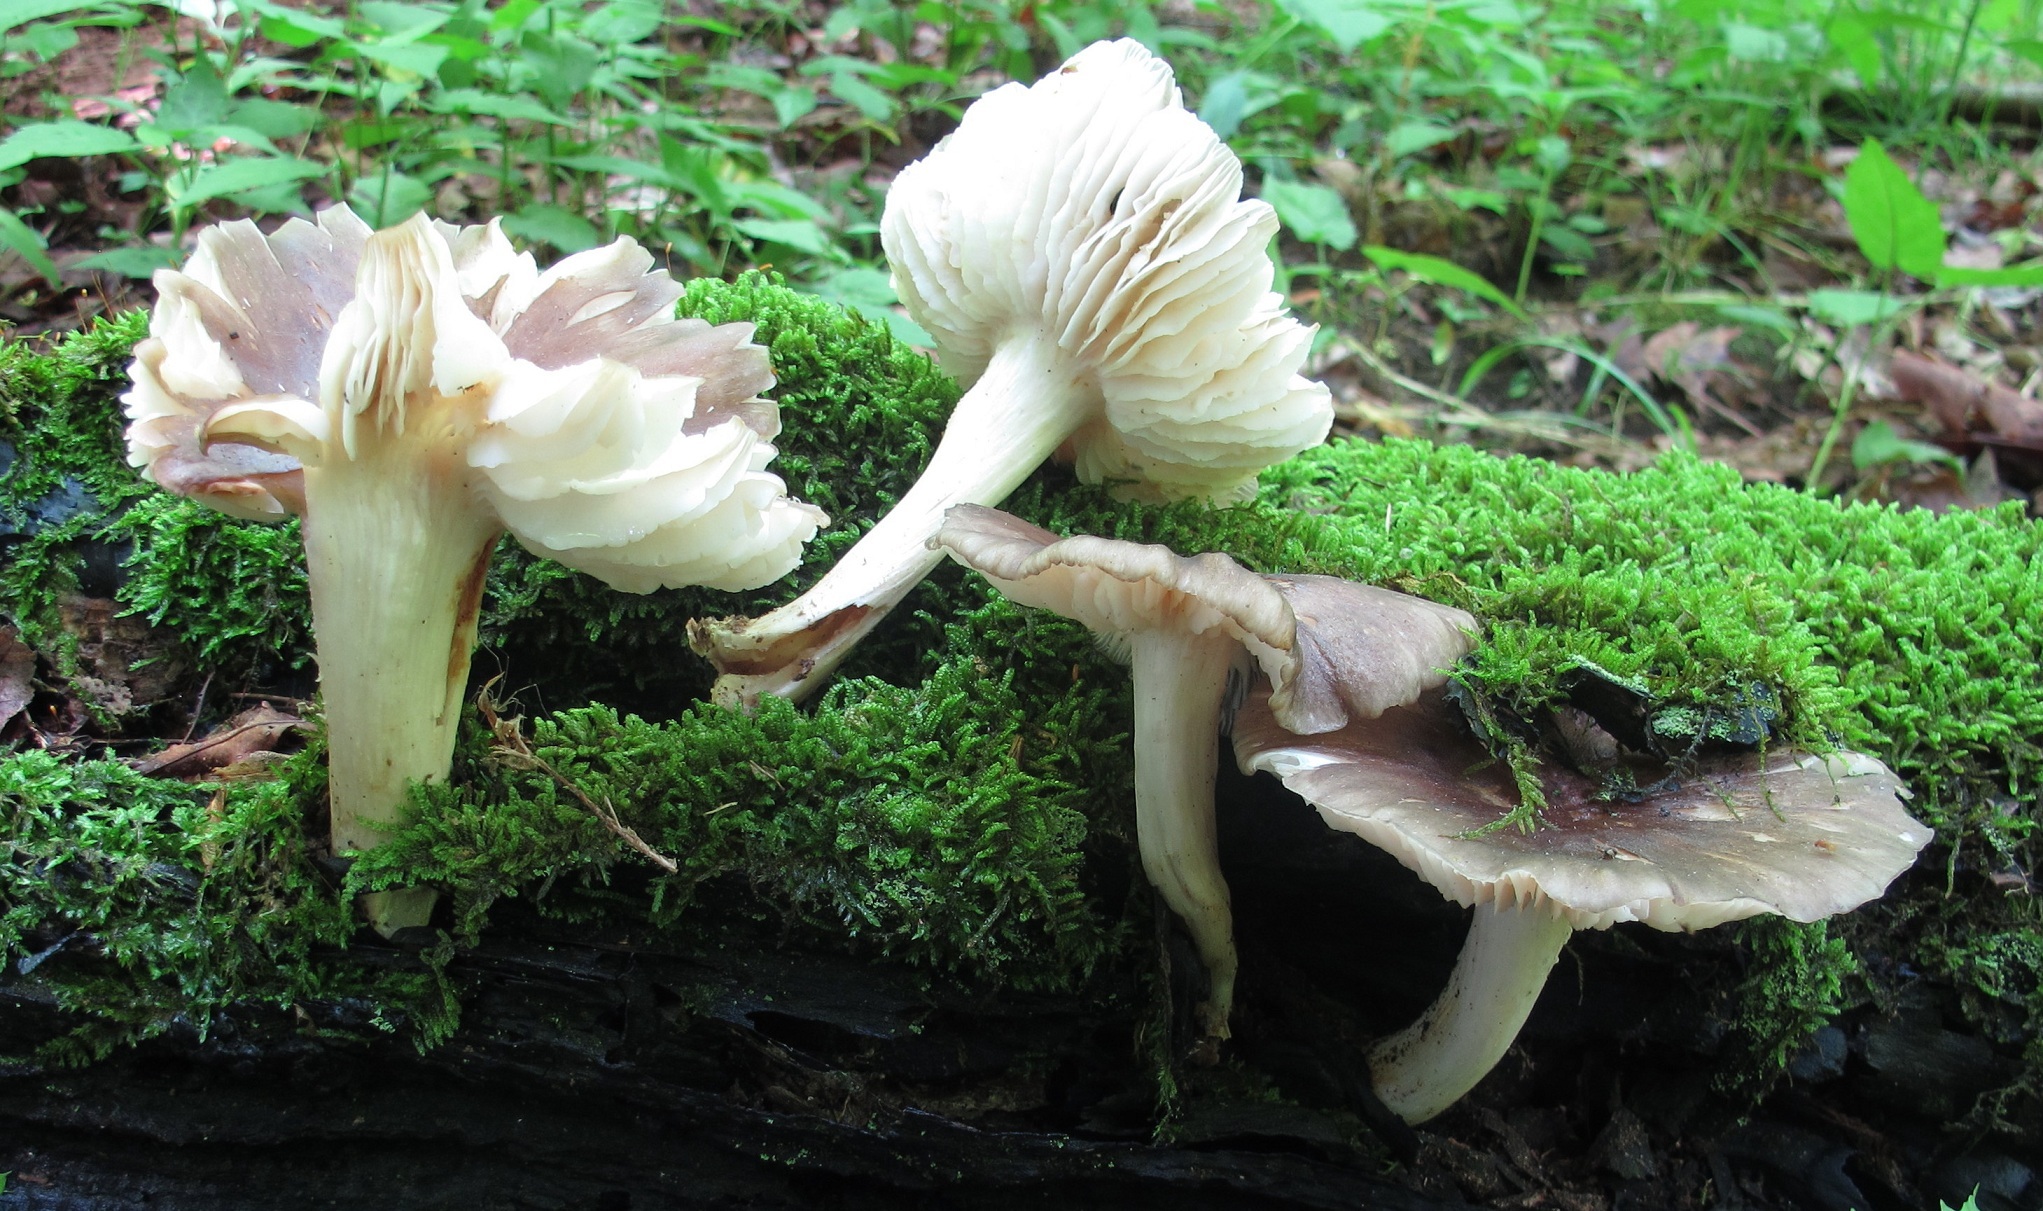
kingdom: Fungi
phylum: Basidiomycota
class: Agaricomycetes
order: Agaricales
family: Tricholomataceae
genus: Megacollybia
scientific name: Megacollybia rodmanii
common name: Eastern american platterful mushroom
